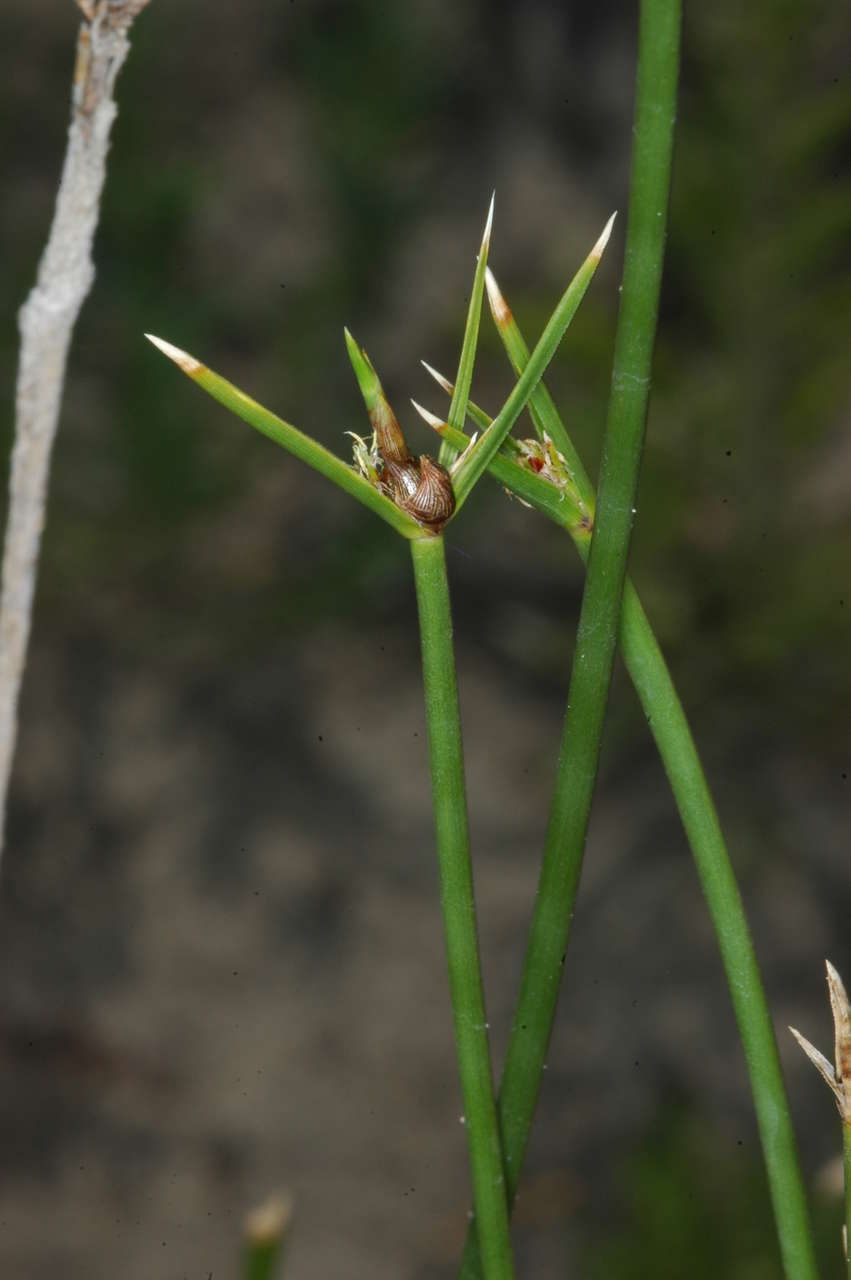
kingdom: Plantae
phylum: Tracheophyta
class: Liliopsida
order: Poales
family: Cyperaceae
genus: Cyperus
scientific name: Cyperus gymnocaulos
